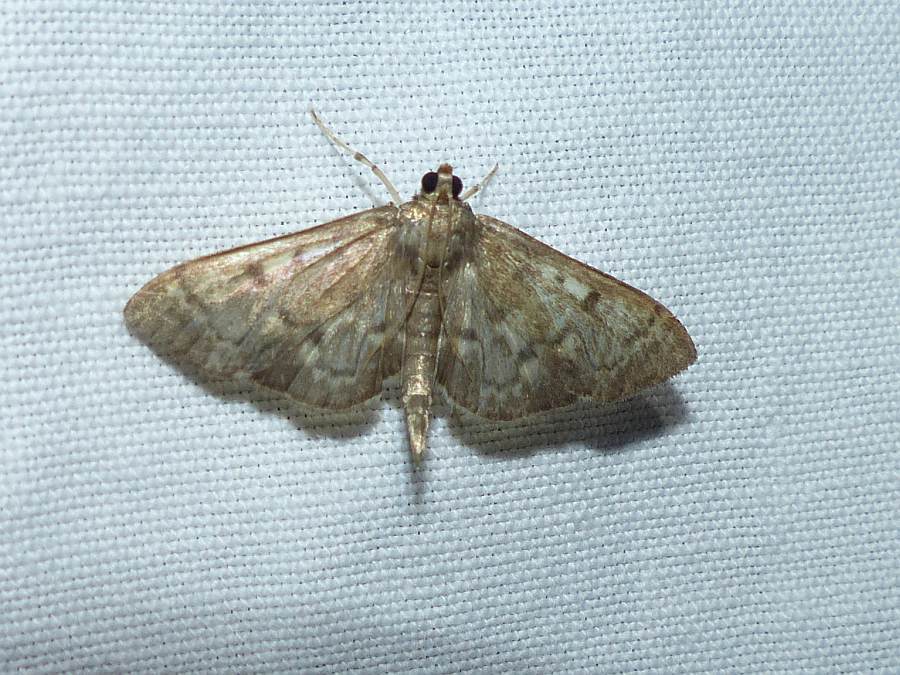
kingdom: Animalia
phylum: Arthropoda
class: Insecta
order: Lepidoptera
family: Crambidae
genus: Herpetogramma
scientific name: Herpetogramma aeglealis
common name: Serpentine webworm moth
